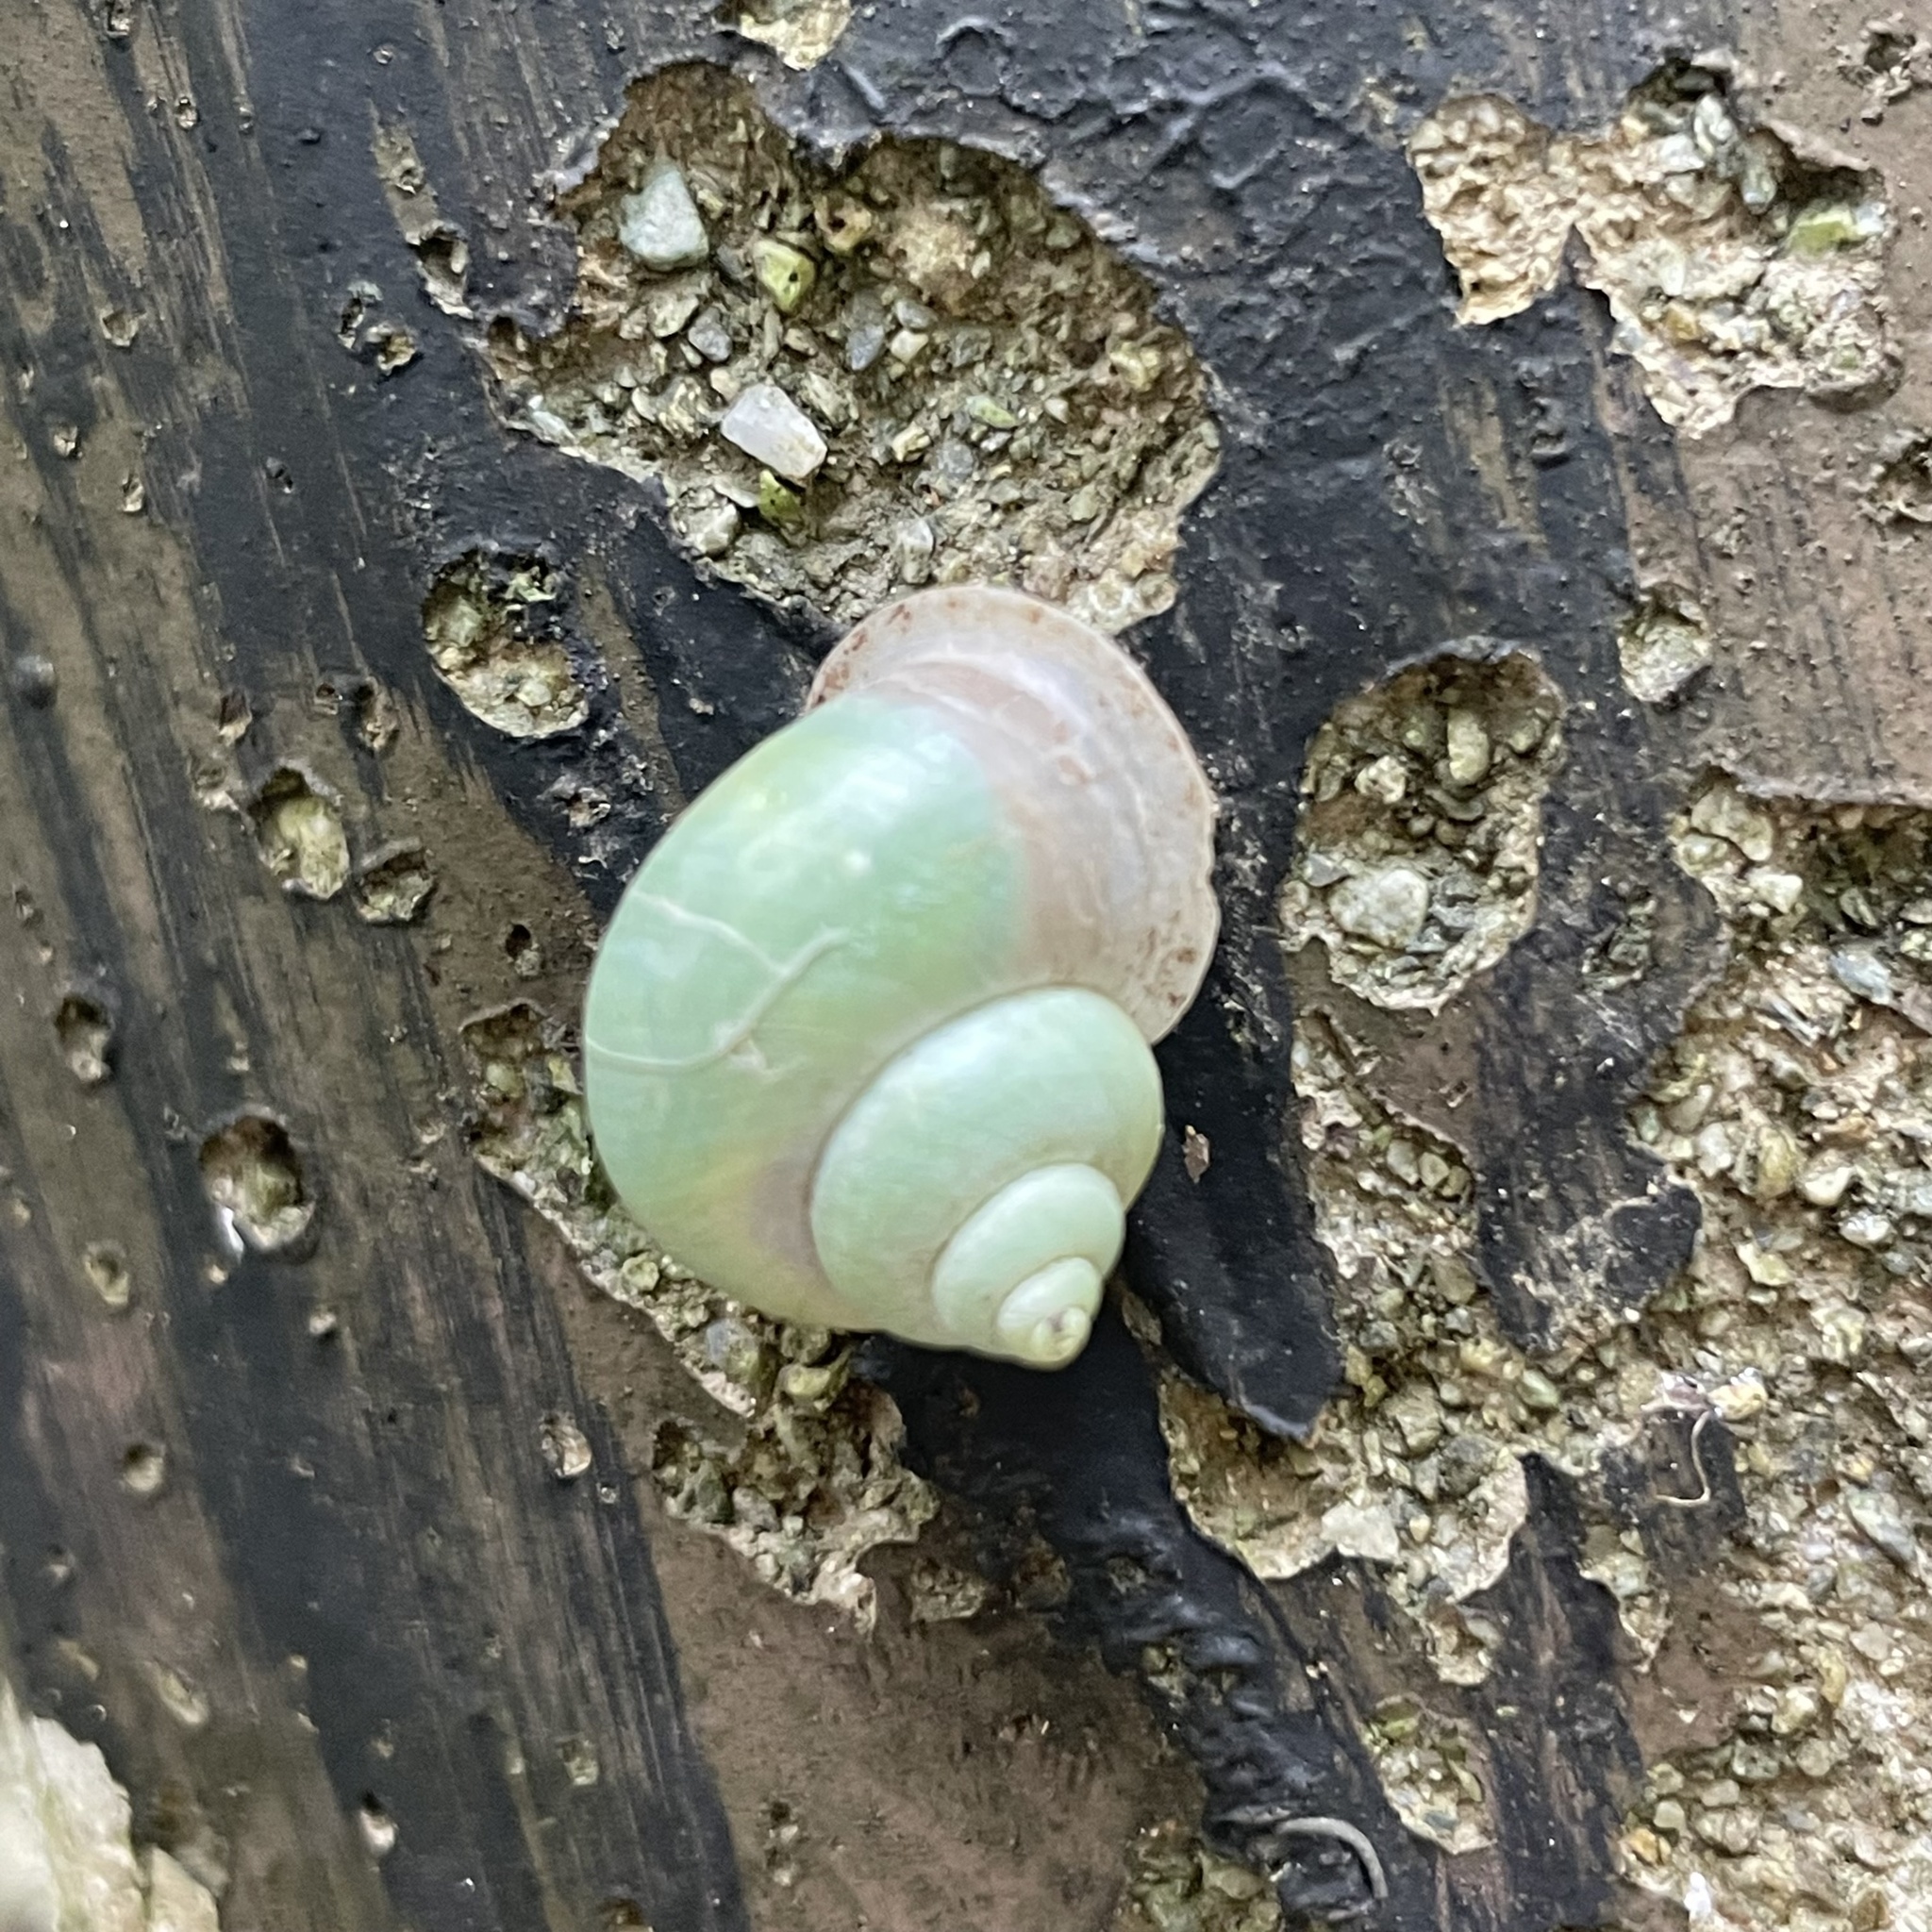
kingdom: Animalia
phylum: Mollusca
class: Gastropoda
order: Architaenioglossa
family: Cyclophoridae
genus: Leptopoma
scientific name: Leptopoma nitidum
